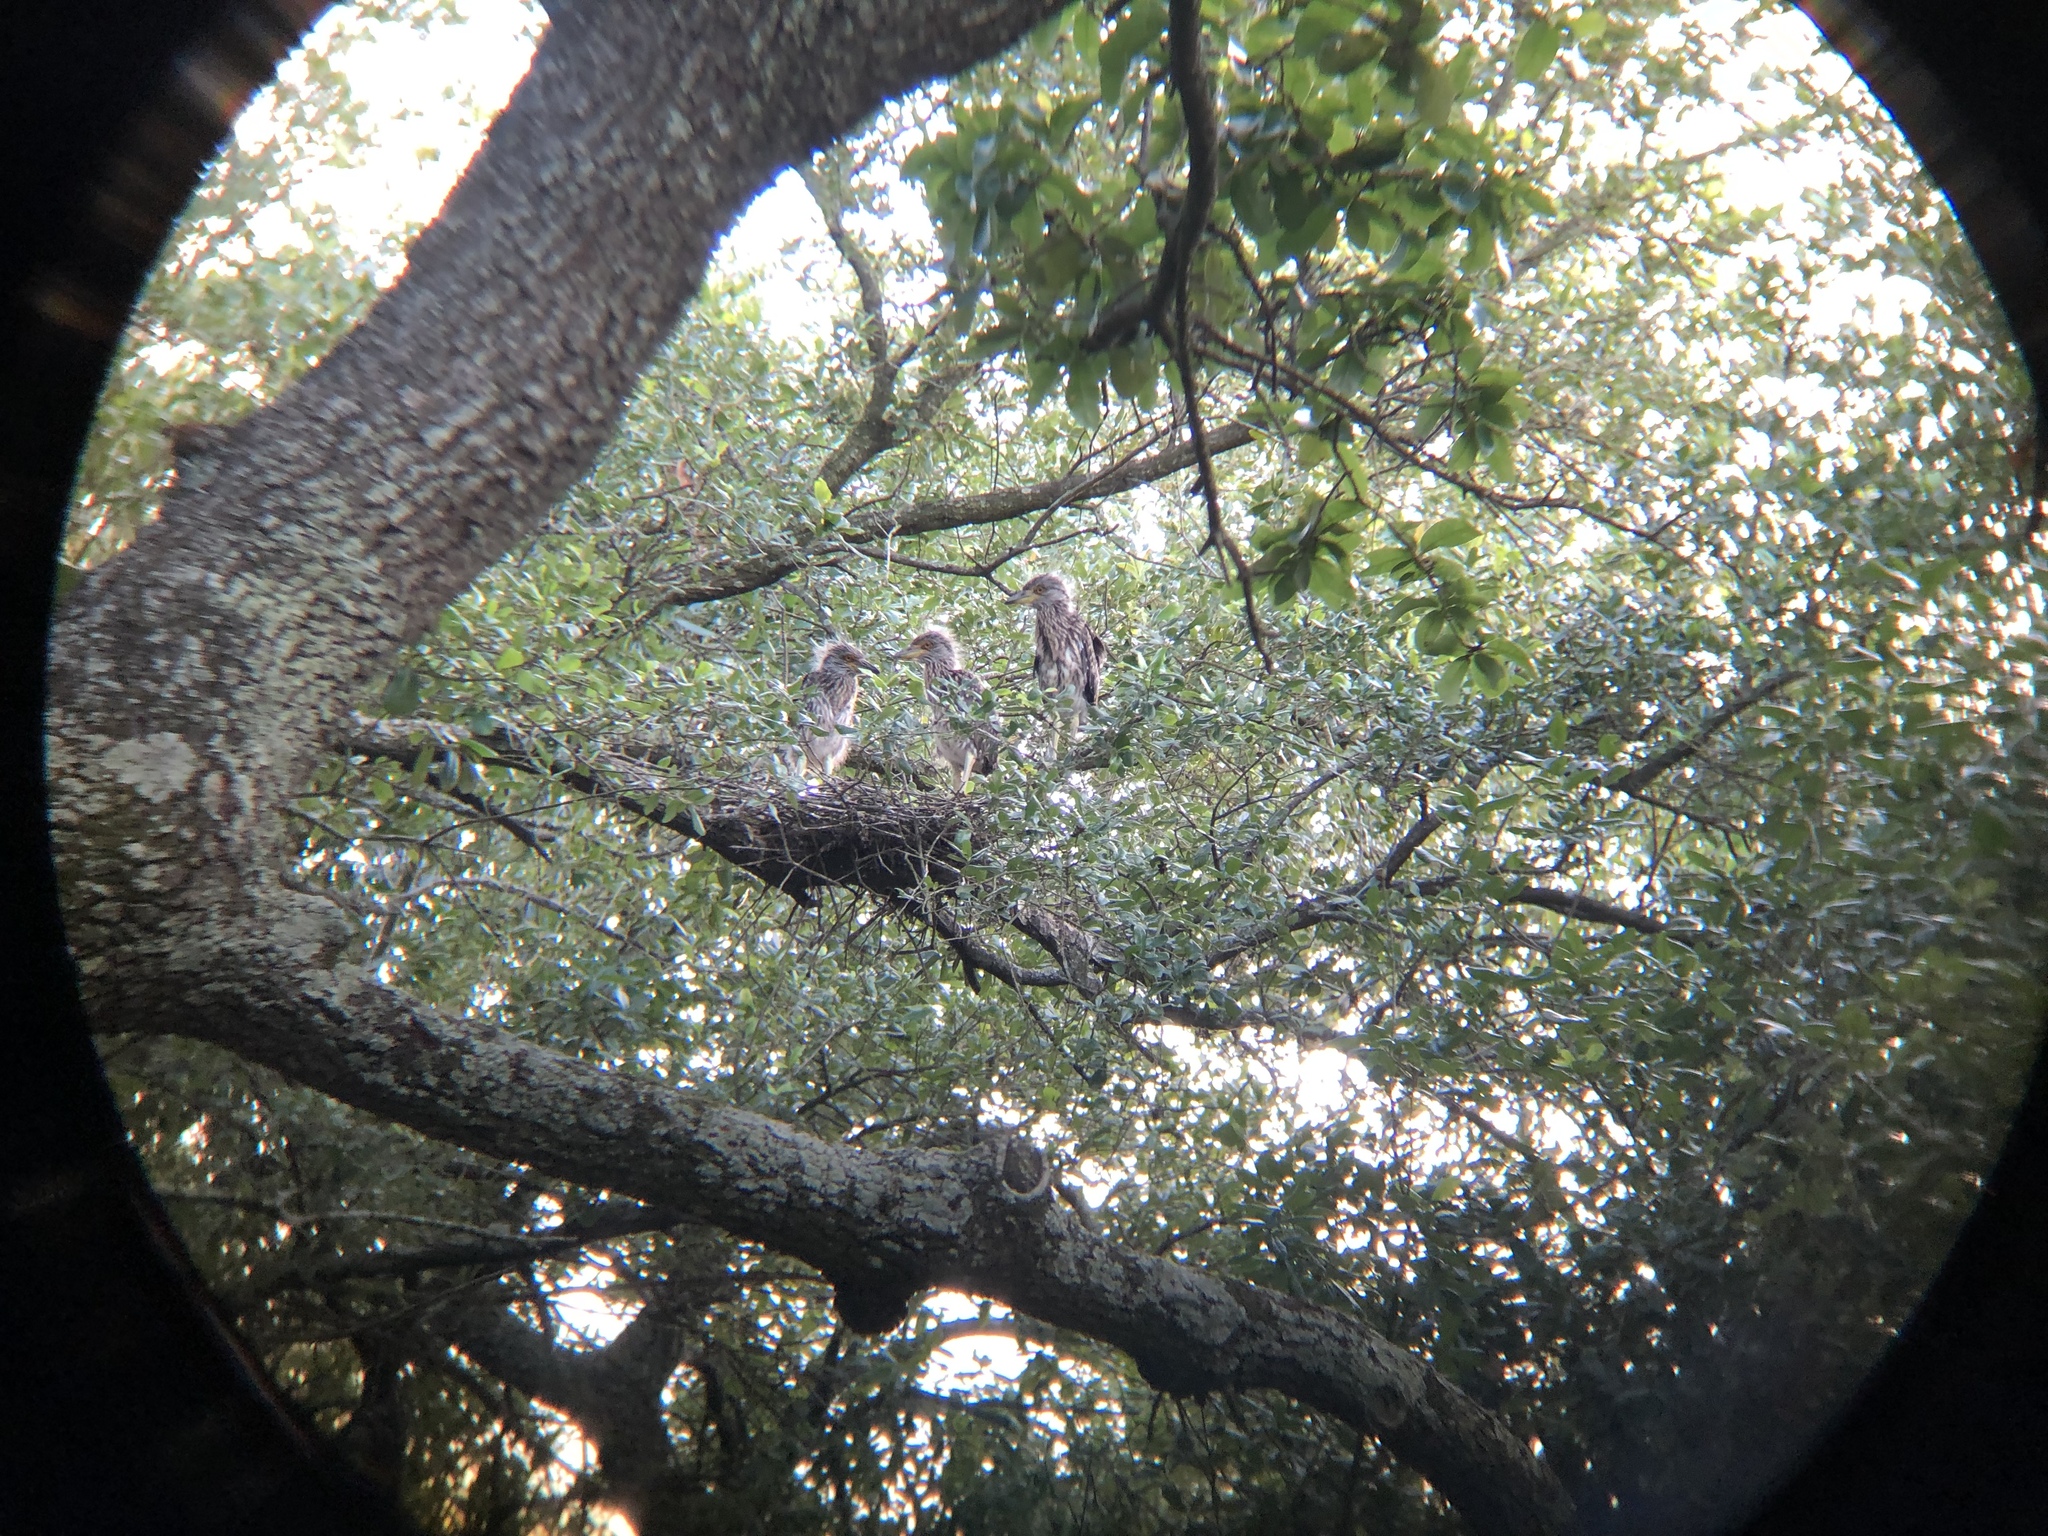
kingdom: Animalia
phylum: Chordata
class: Aves
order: Pelecaniformes
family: Ardeidae
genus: Nyctanassa
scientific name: Nyctanassa violacea
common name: Yellow-crowned night heron
